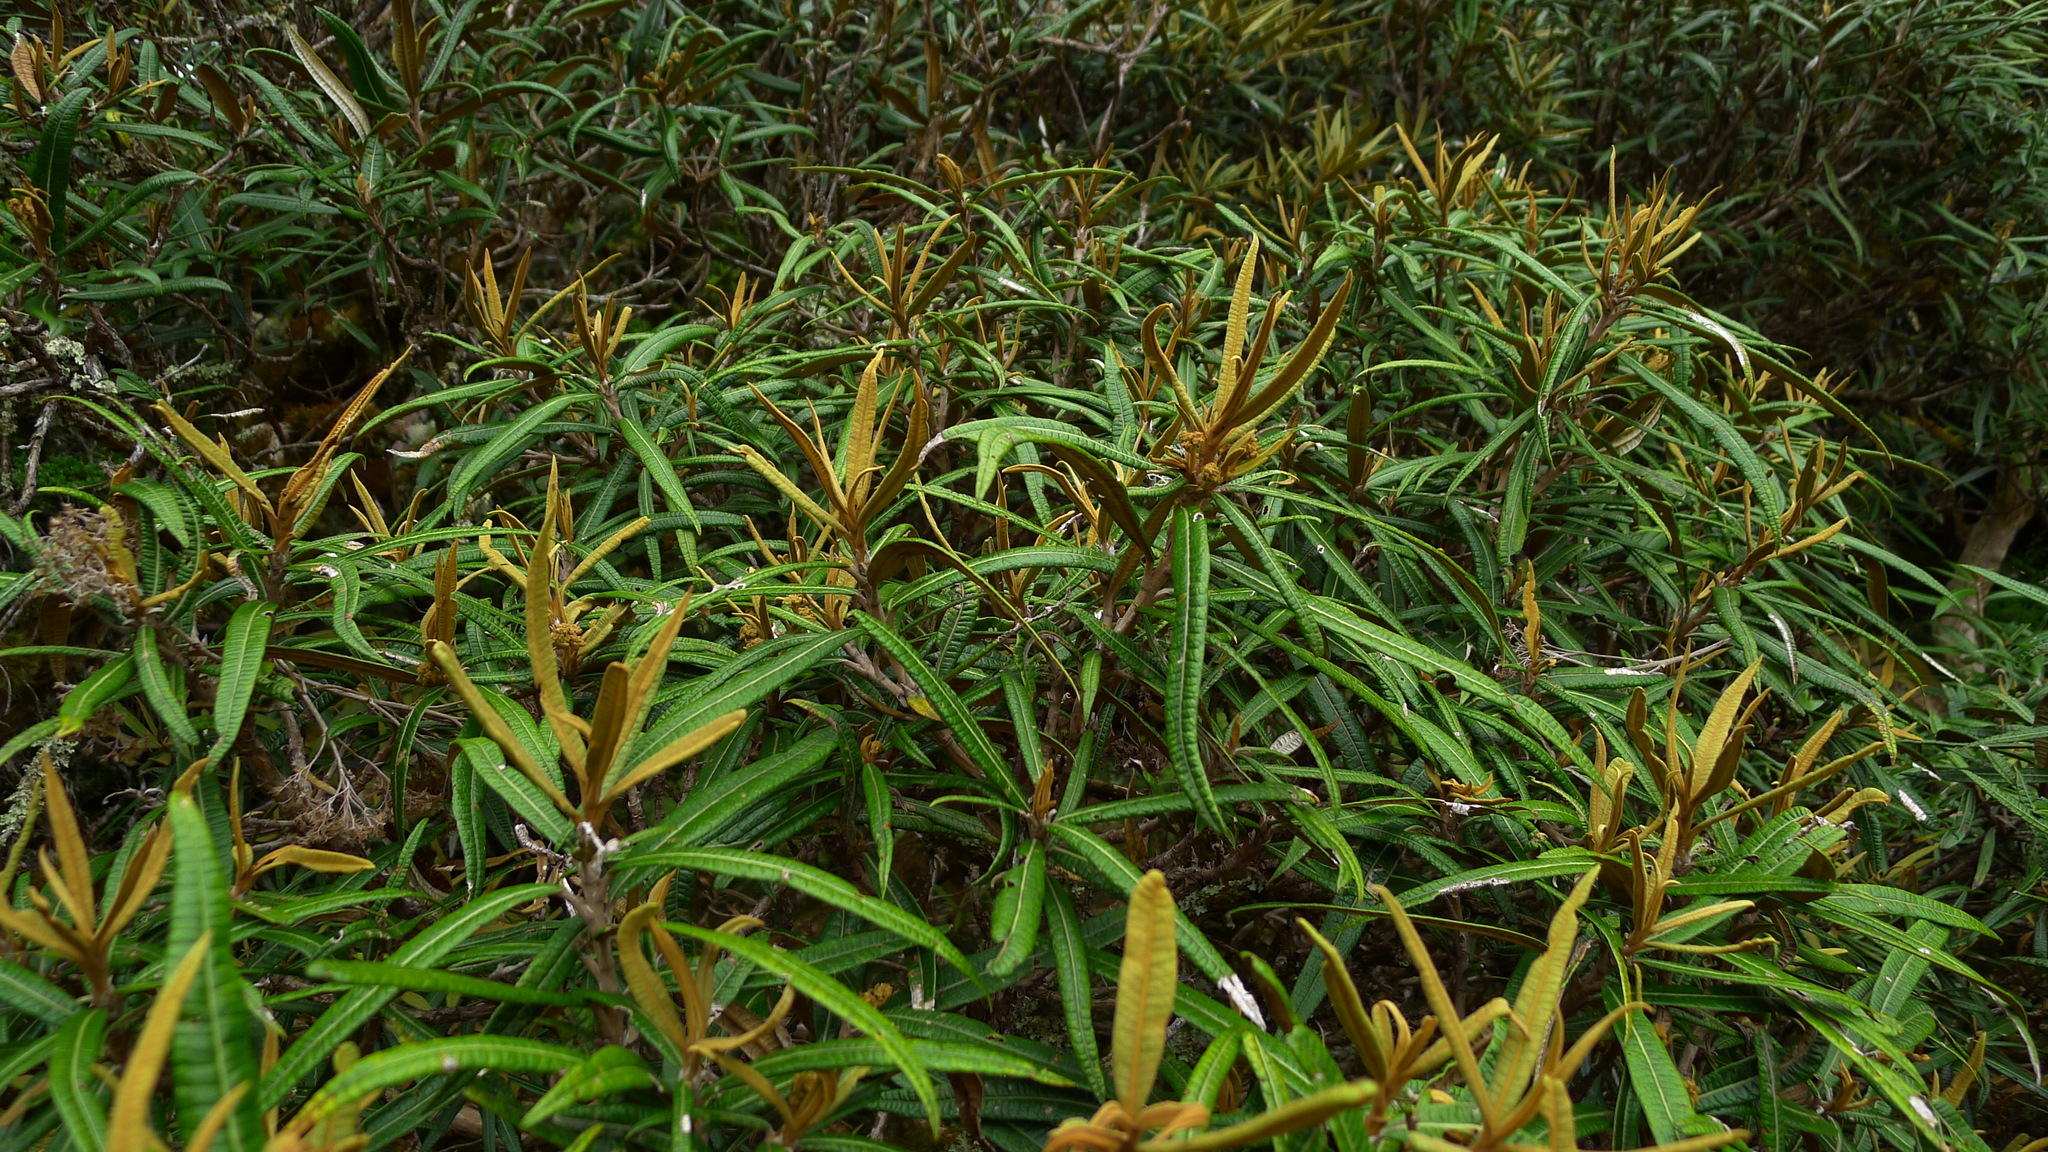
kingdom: Plantae
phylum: Tracheophyta
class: Magnoliopsida
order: Asterales
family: Asteraceae
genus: Olearia
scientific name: Olearia lacunosa
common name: Lancewood tree daisy
